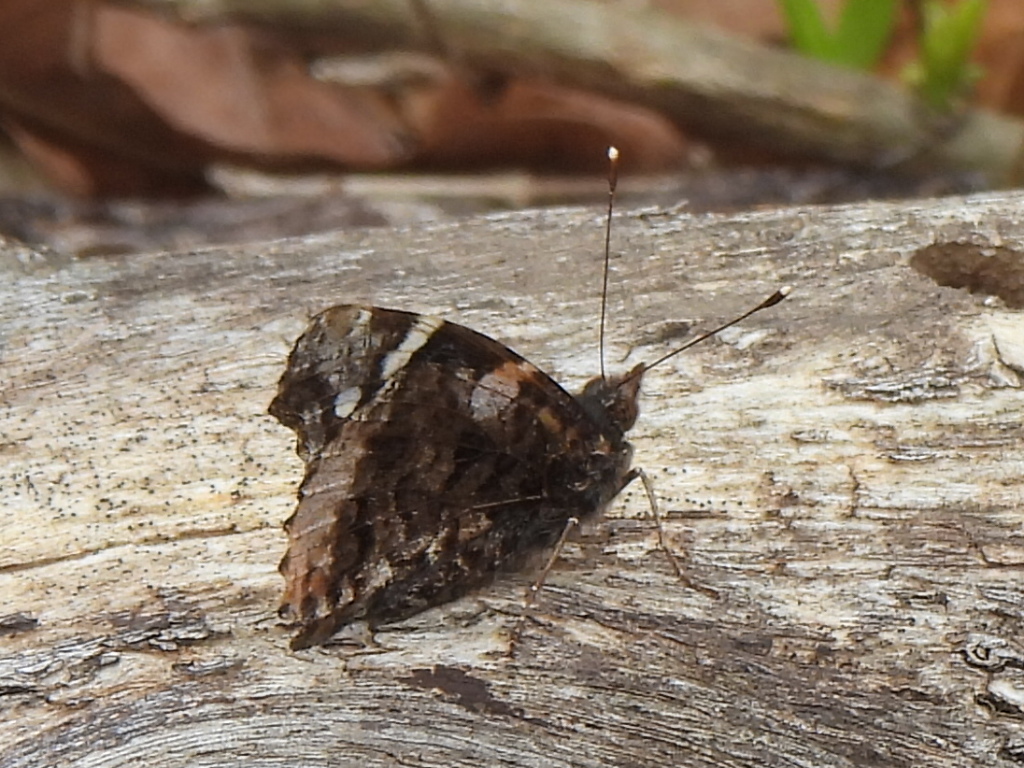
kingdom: Animalia
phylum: Arthropoda
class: Insecta
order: Lepidoptera
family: Nymphalidae
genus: Vanessa
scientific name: Vanessa atalanta
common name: Red admiral
